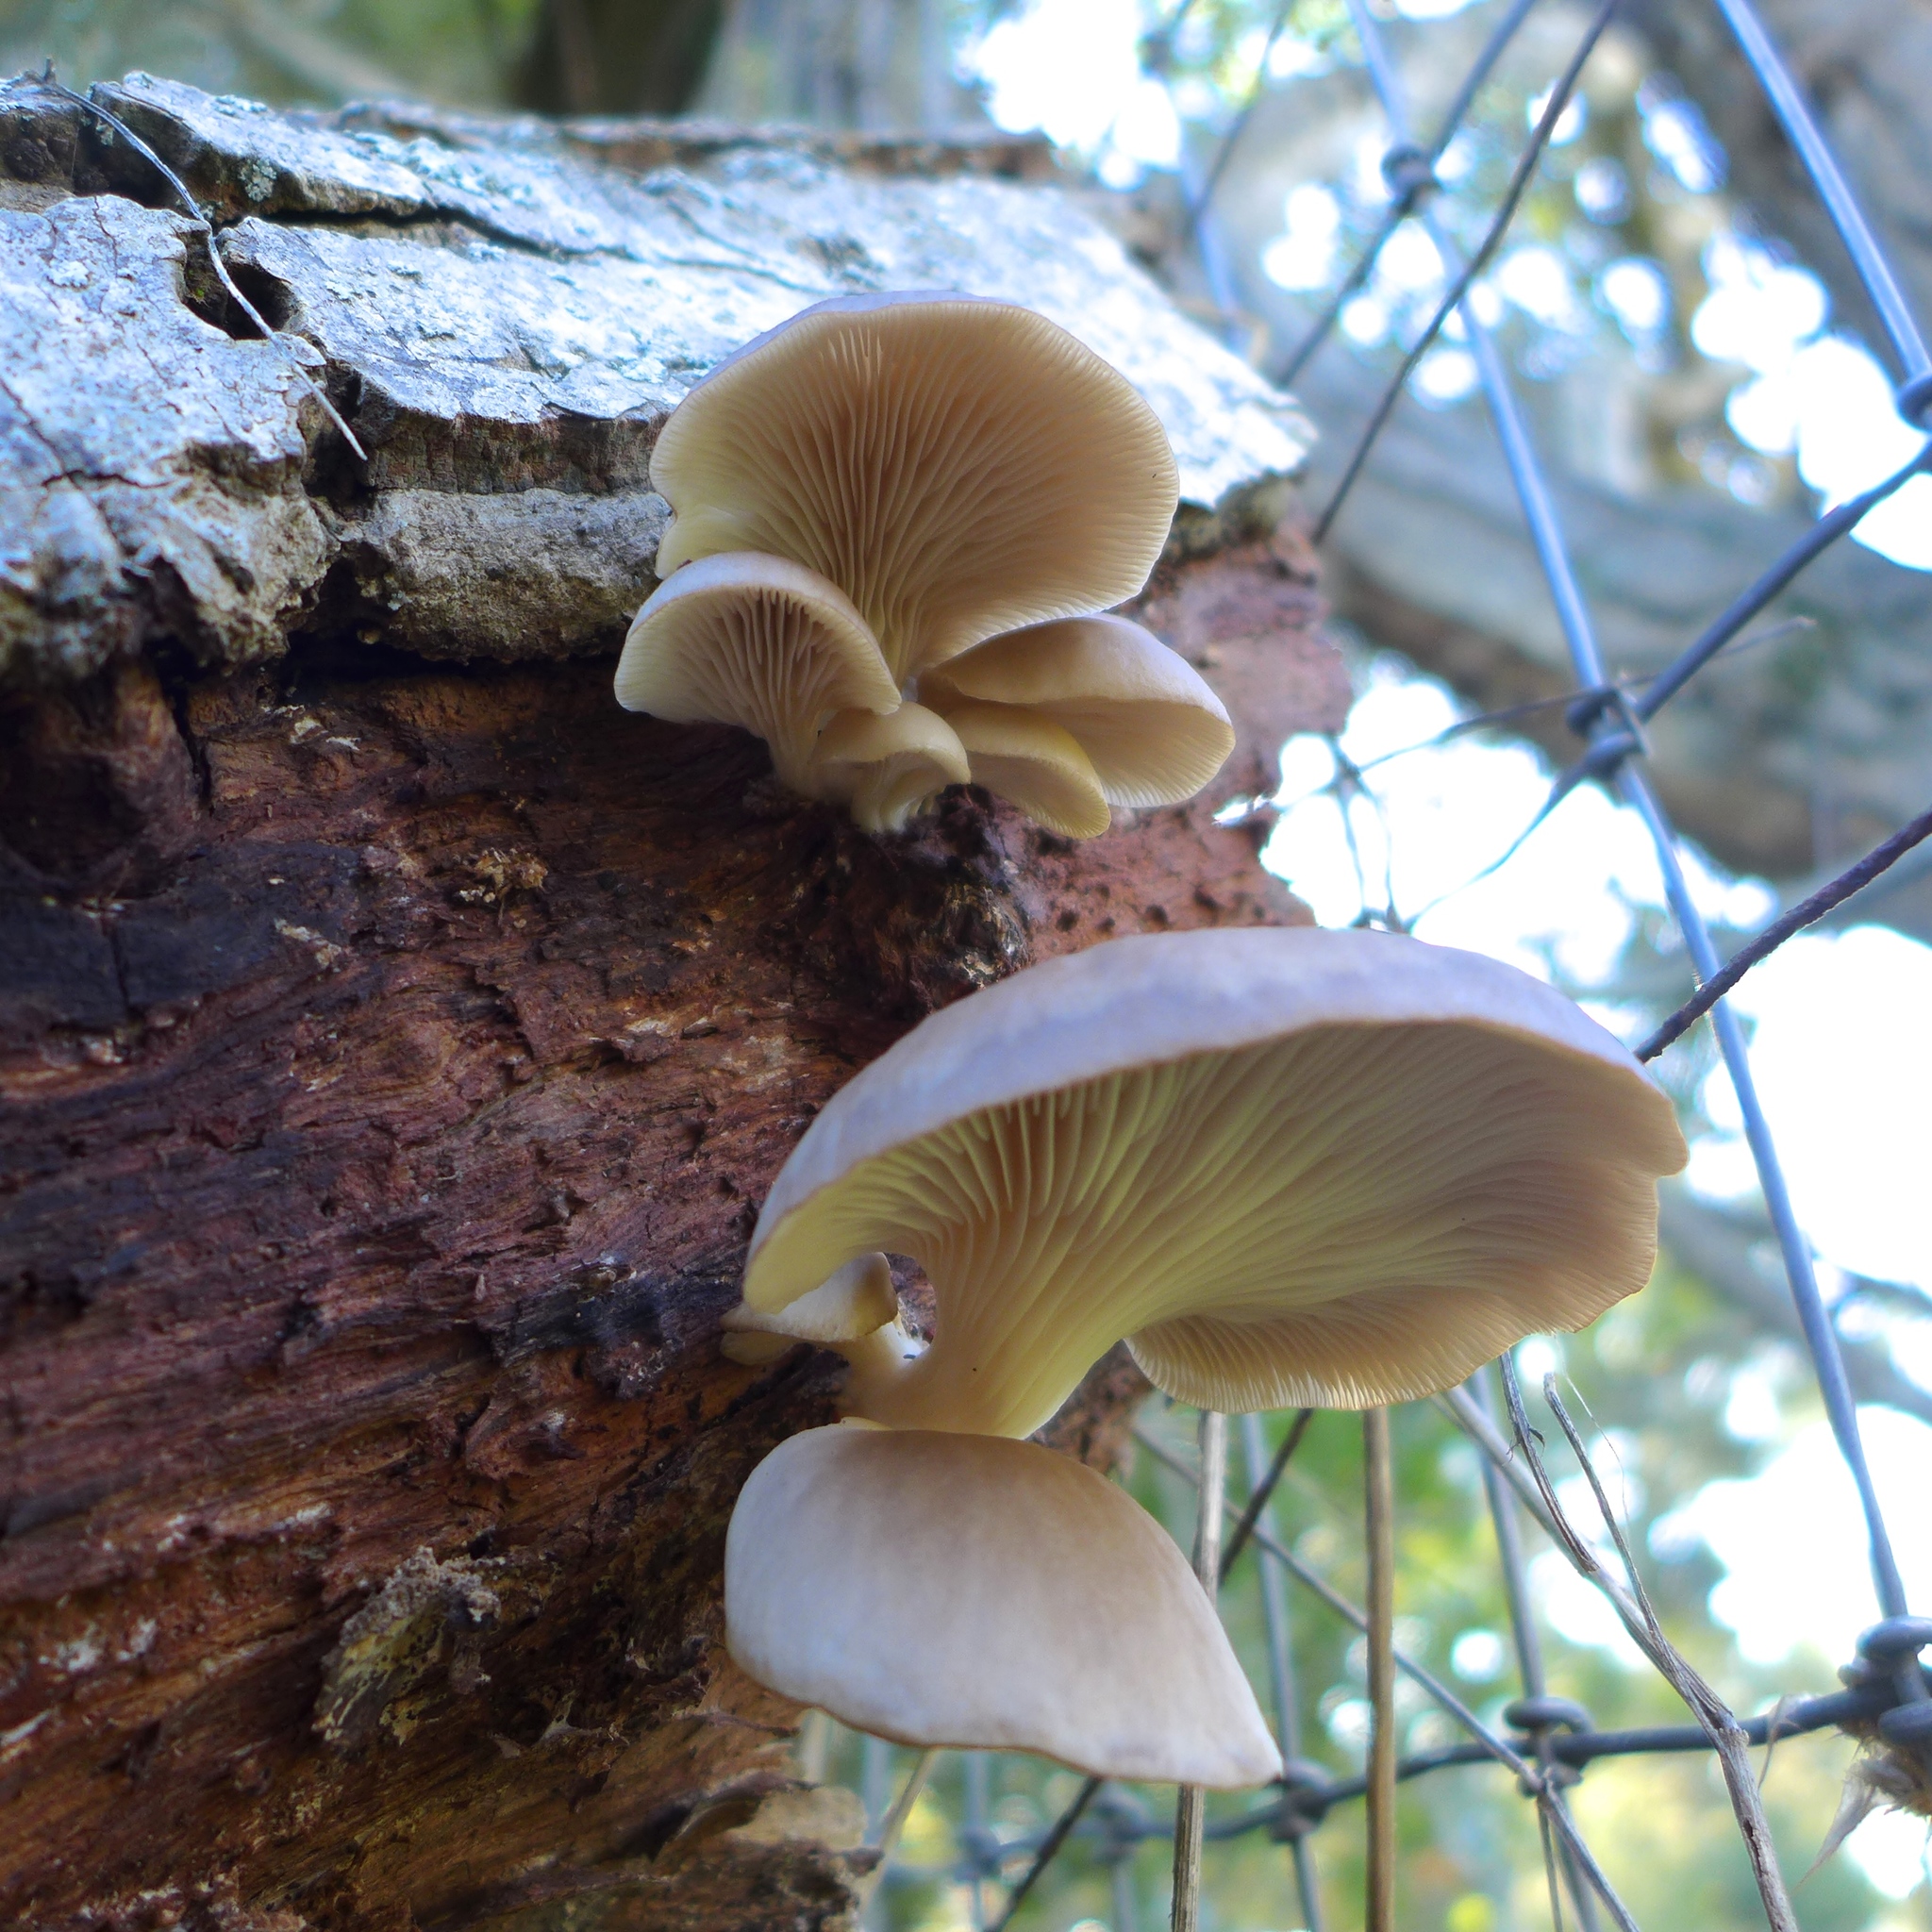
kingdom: Fungi
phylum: Basidiomycota
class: Agaricomycetes
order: Agaricales
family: Pleurotaceae
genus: Pleurotus
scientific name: Pleurotus ostreatus
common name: Oyster mushroom
